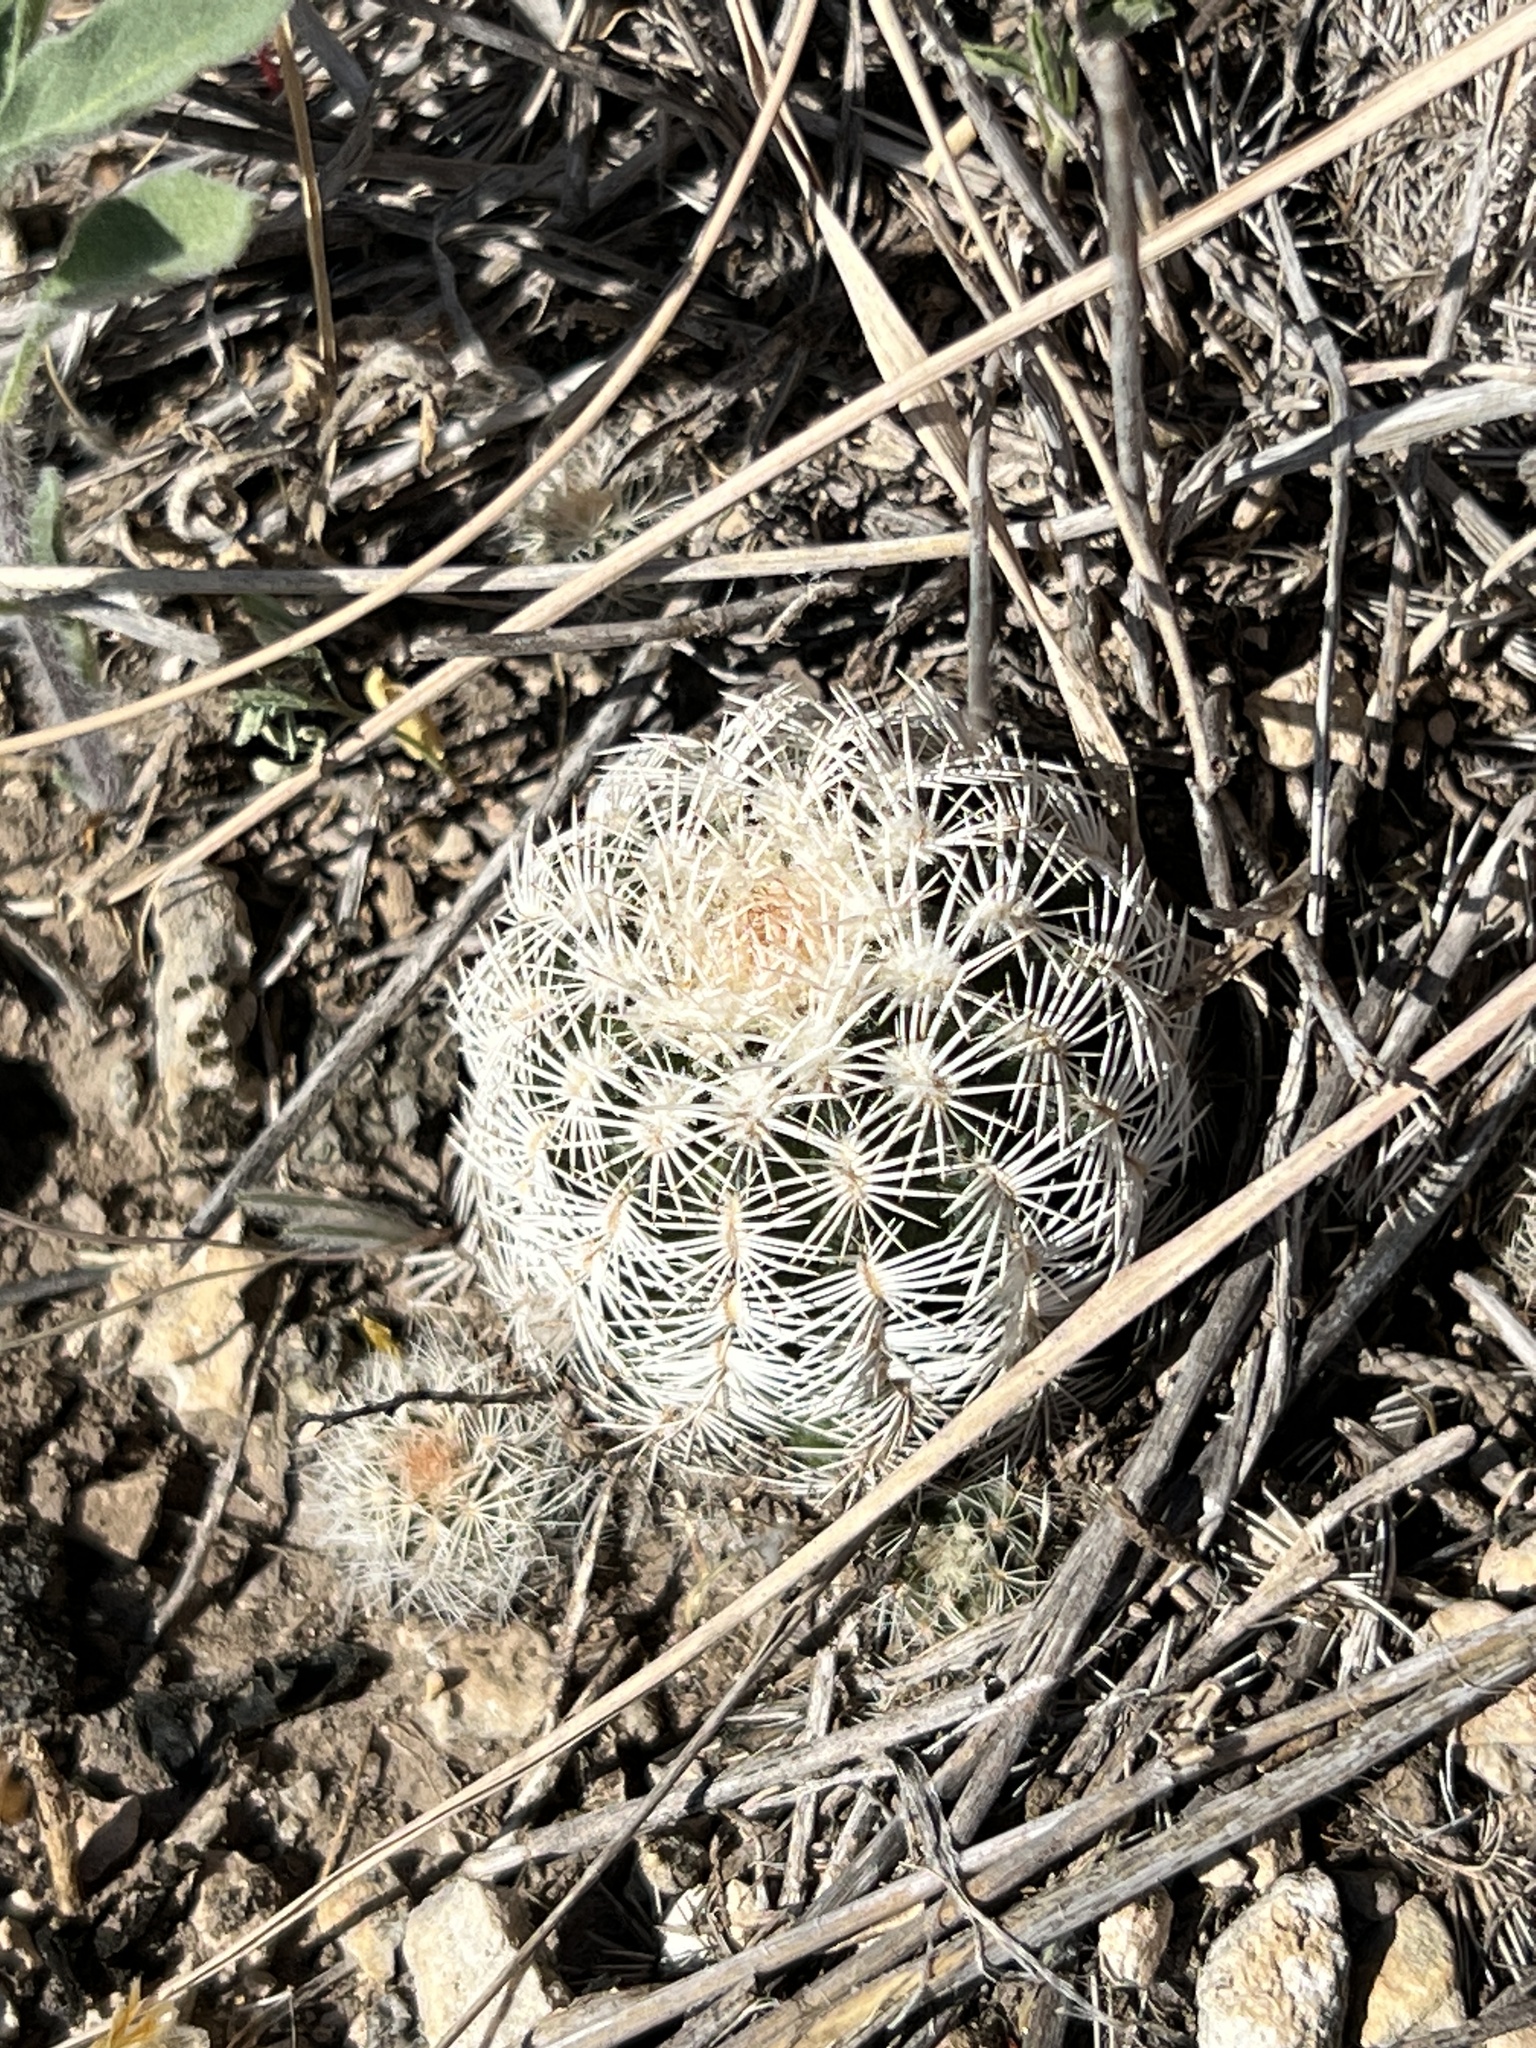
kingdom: Plantae
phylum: Tracheophyta
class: Magnoliopsida
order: Caryophyllales
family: Cactaceae
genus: Echinocereus
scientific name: Echinocereus reichenbachii
